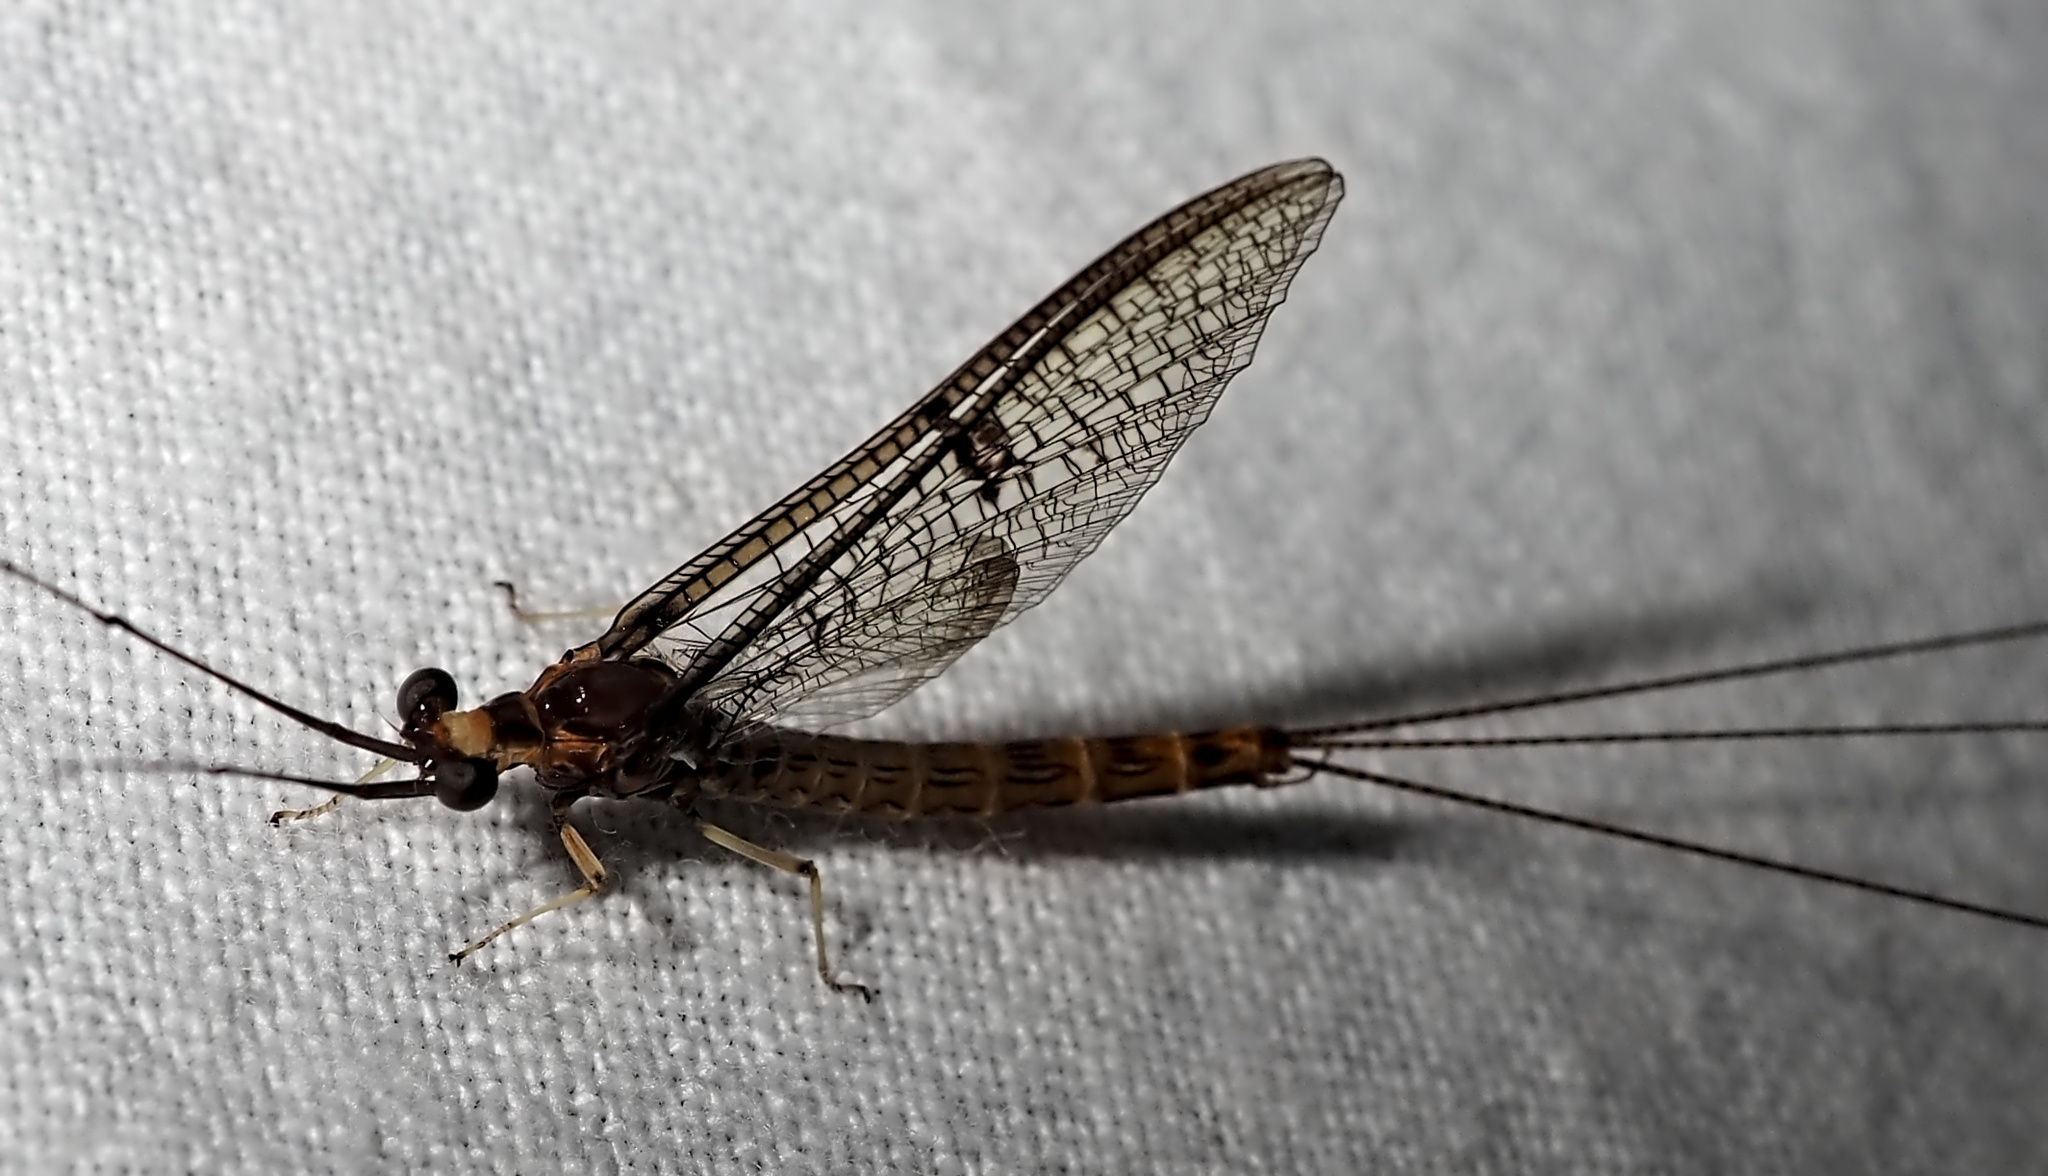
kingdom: Animalia
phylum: Arthropoda
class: Insecta
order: Ephemeroptera
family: Ephemeridae
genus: Ephemera
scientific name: Ephemera lineata
